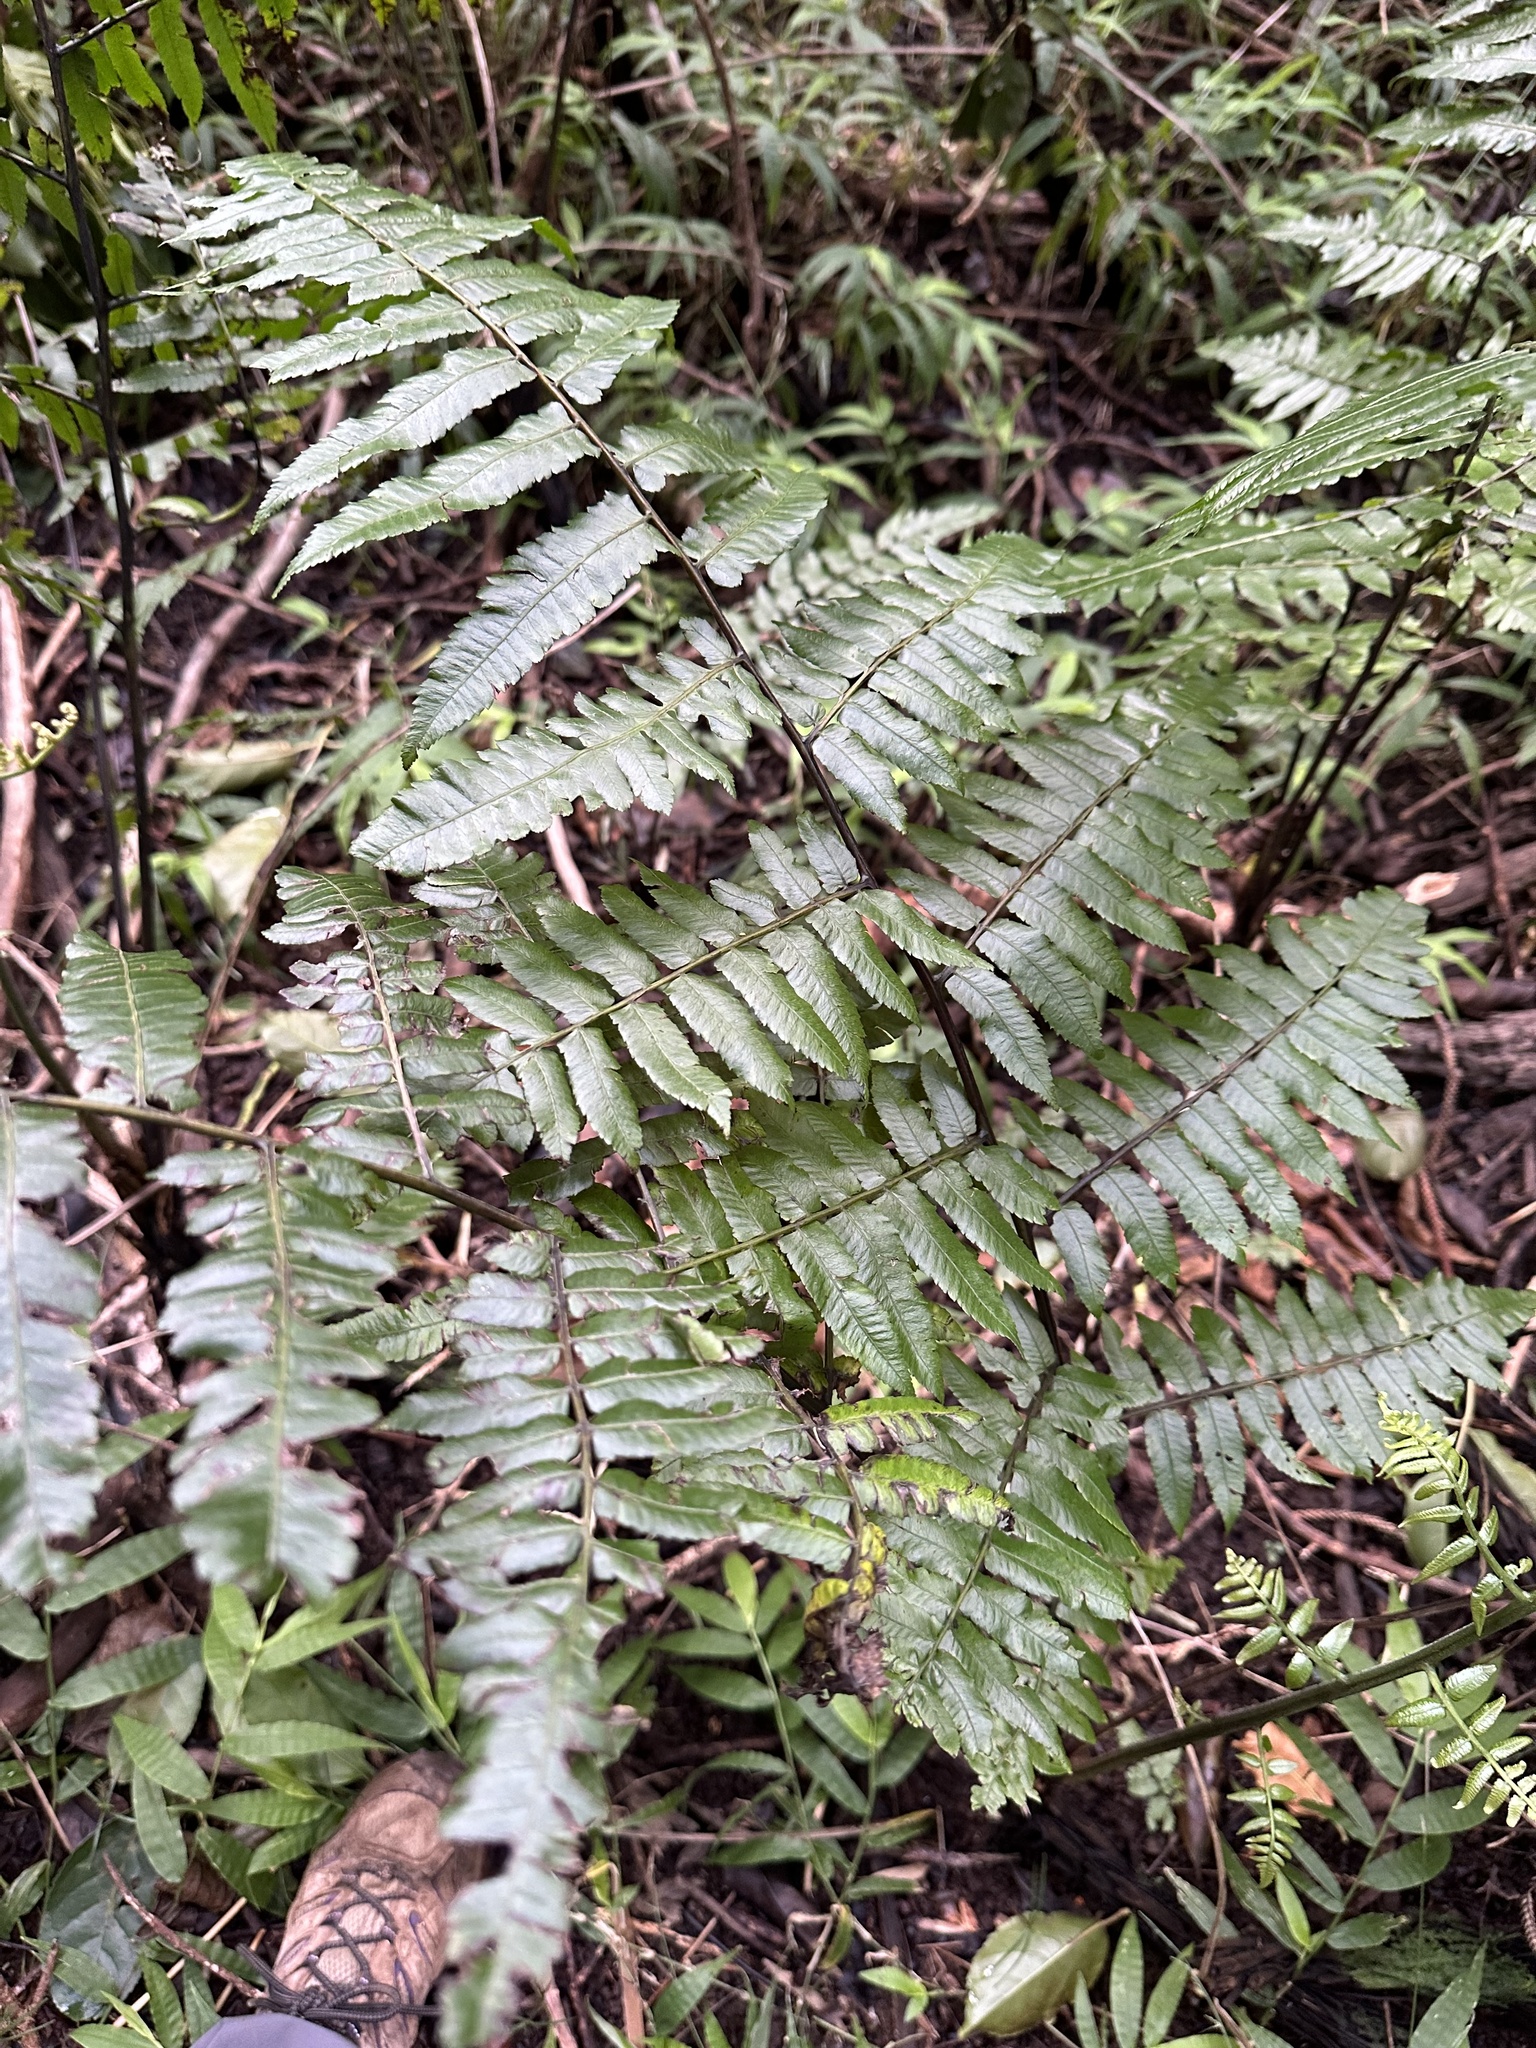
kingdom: Plantae
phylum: Tracheophyta
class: Polypodiopsida
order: Polypodiales
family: Athyriaceae
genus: Diplazium
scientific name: Diplazium esculentum
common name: Vegetable fern
